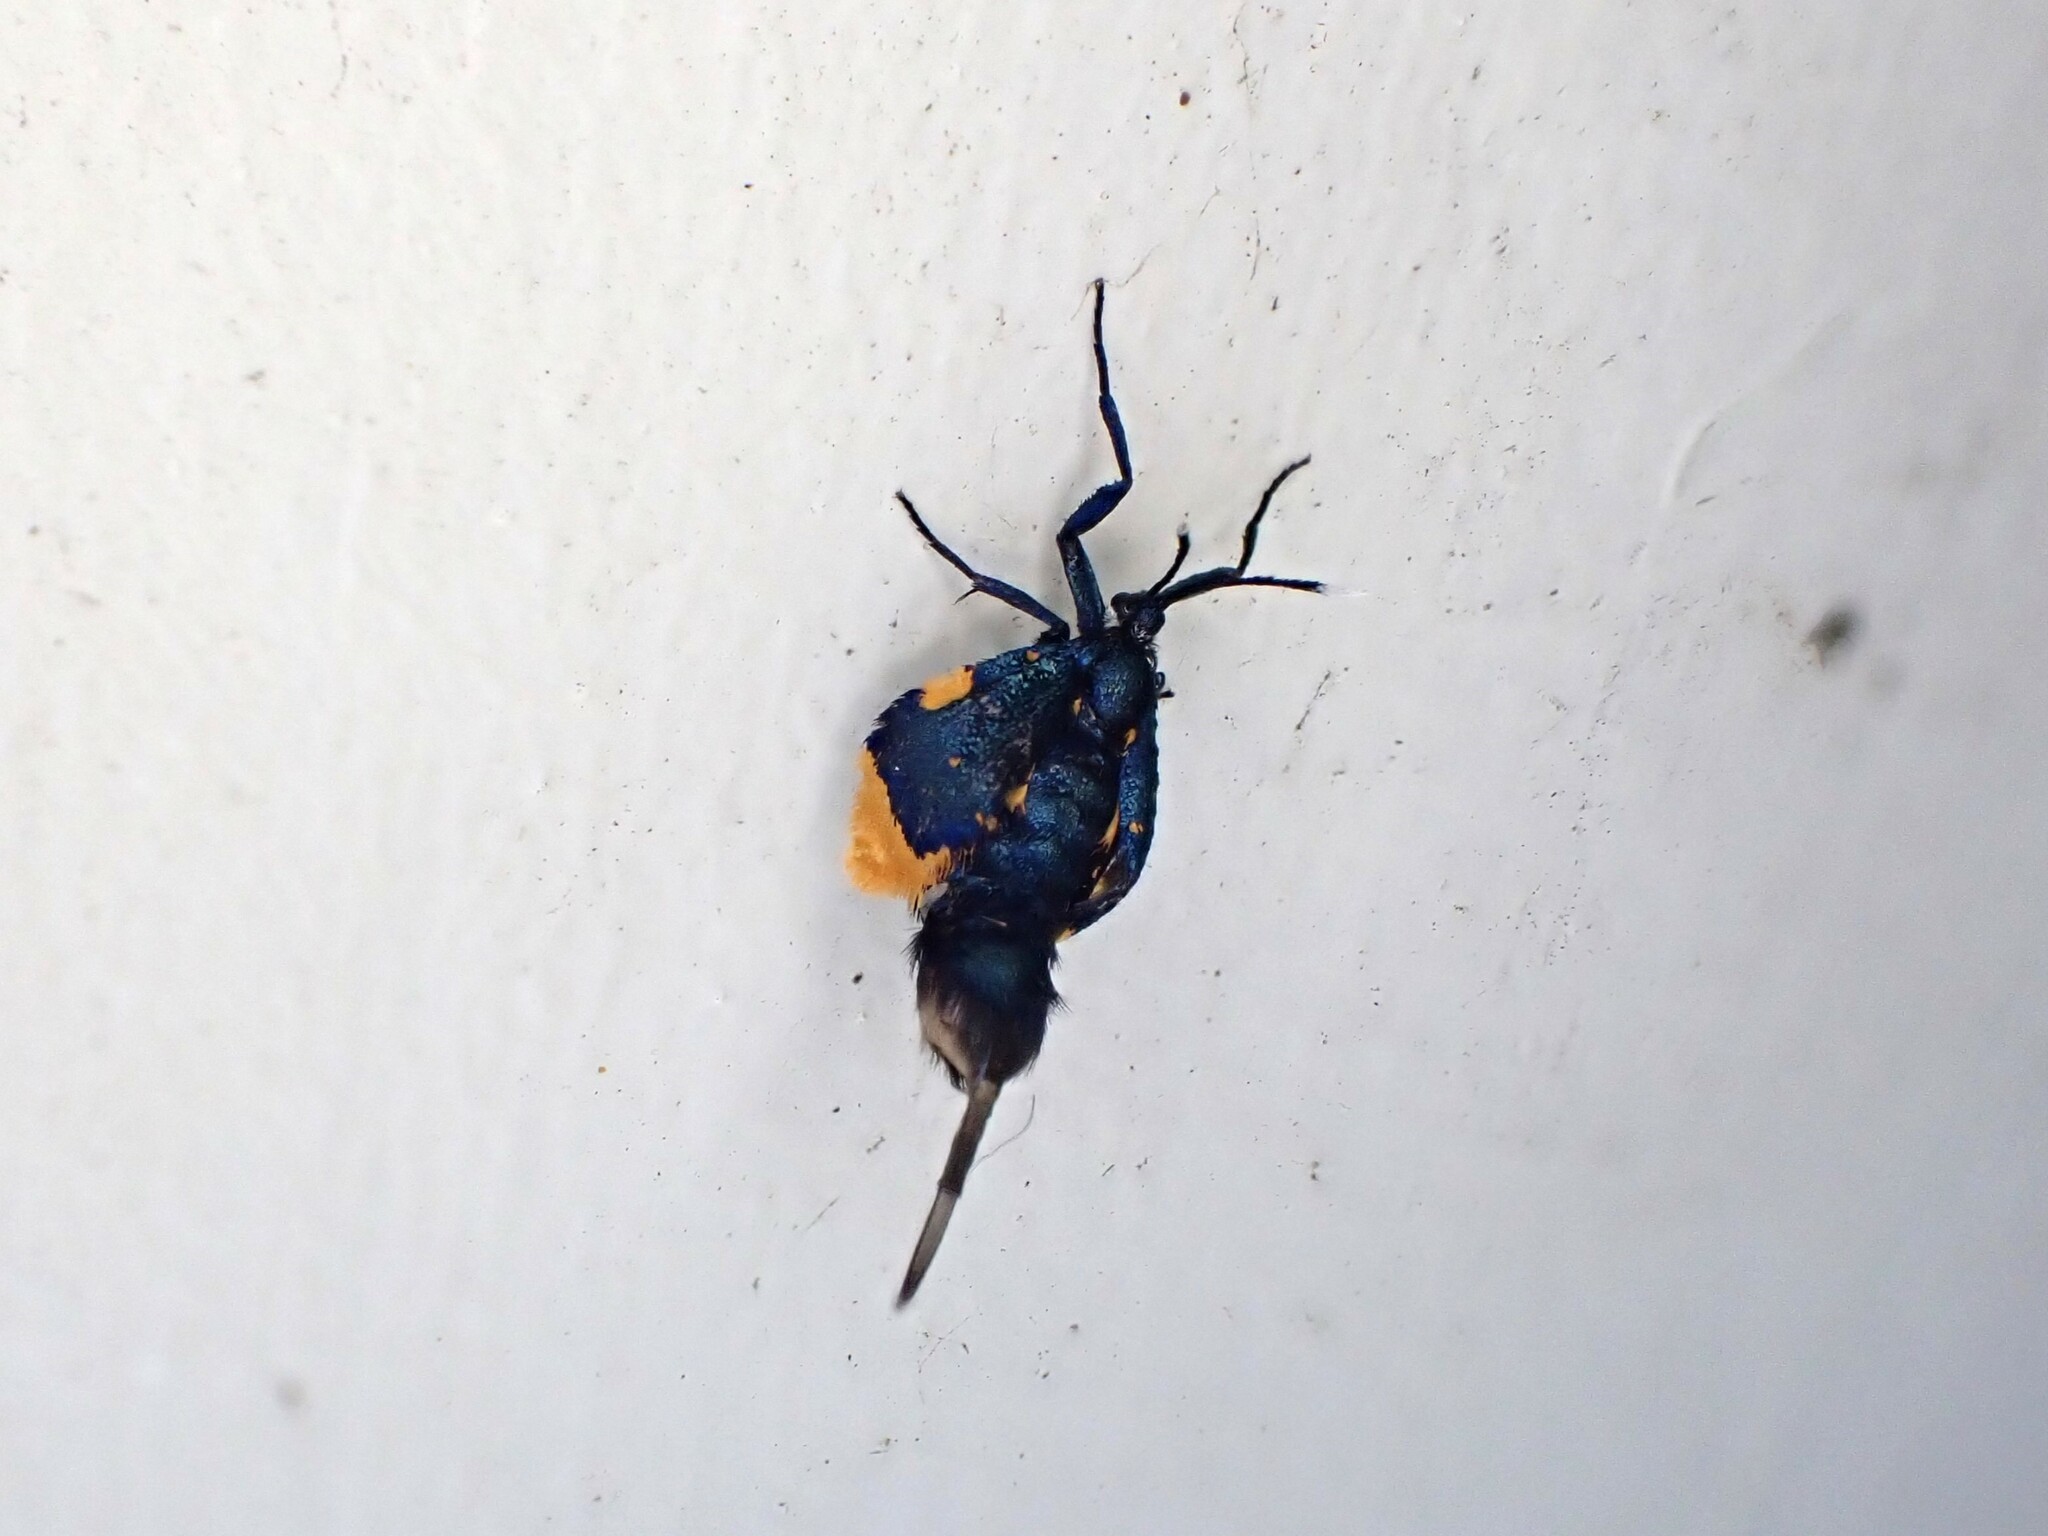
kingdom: Animalia
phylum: Arthropoda
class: Insecta
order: Lepidoptera
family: Psychidae
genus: Cebysa
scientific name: Cebysa leucotelus
